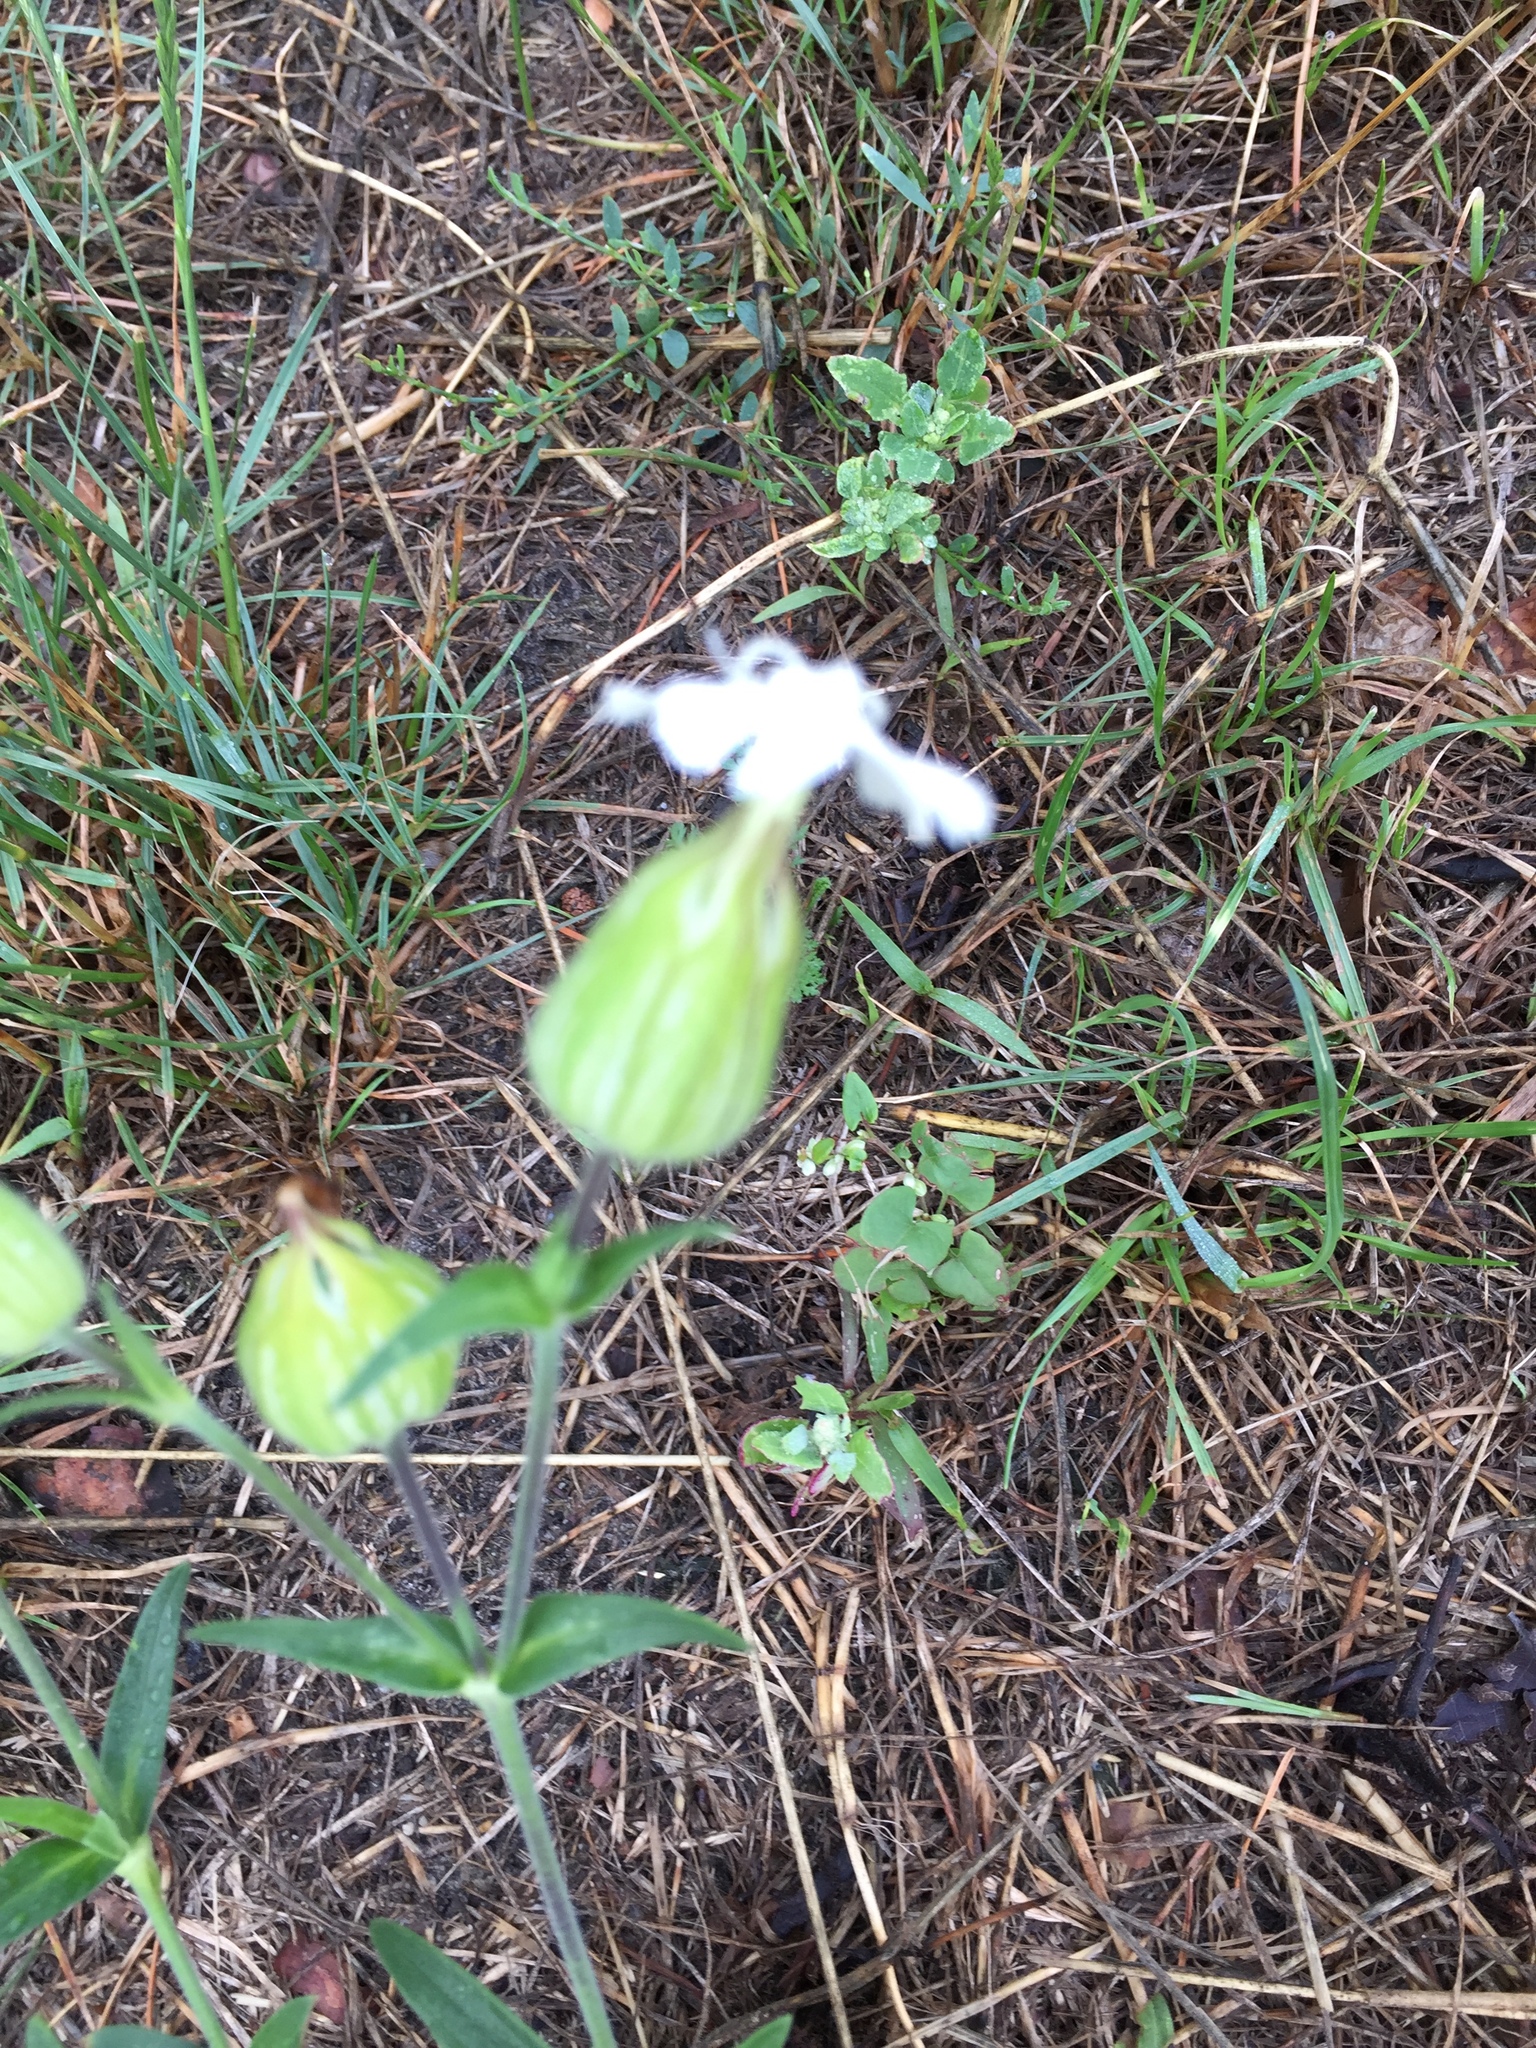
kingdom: Plantae
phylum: Tracheophyta
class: Magnoliopsida
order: Caryophyllales
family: Caryophyllaceae
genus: Silene
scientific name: Silene latifolia
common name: White campion
